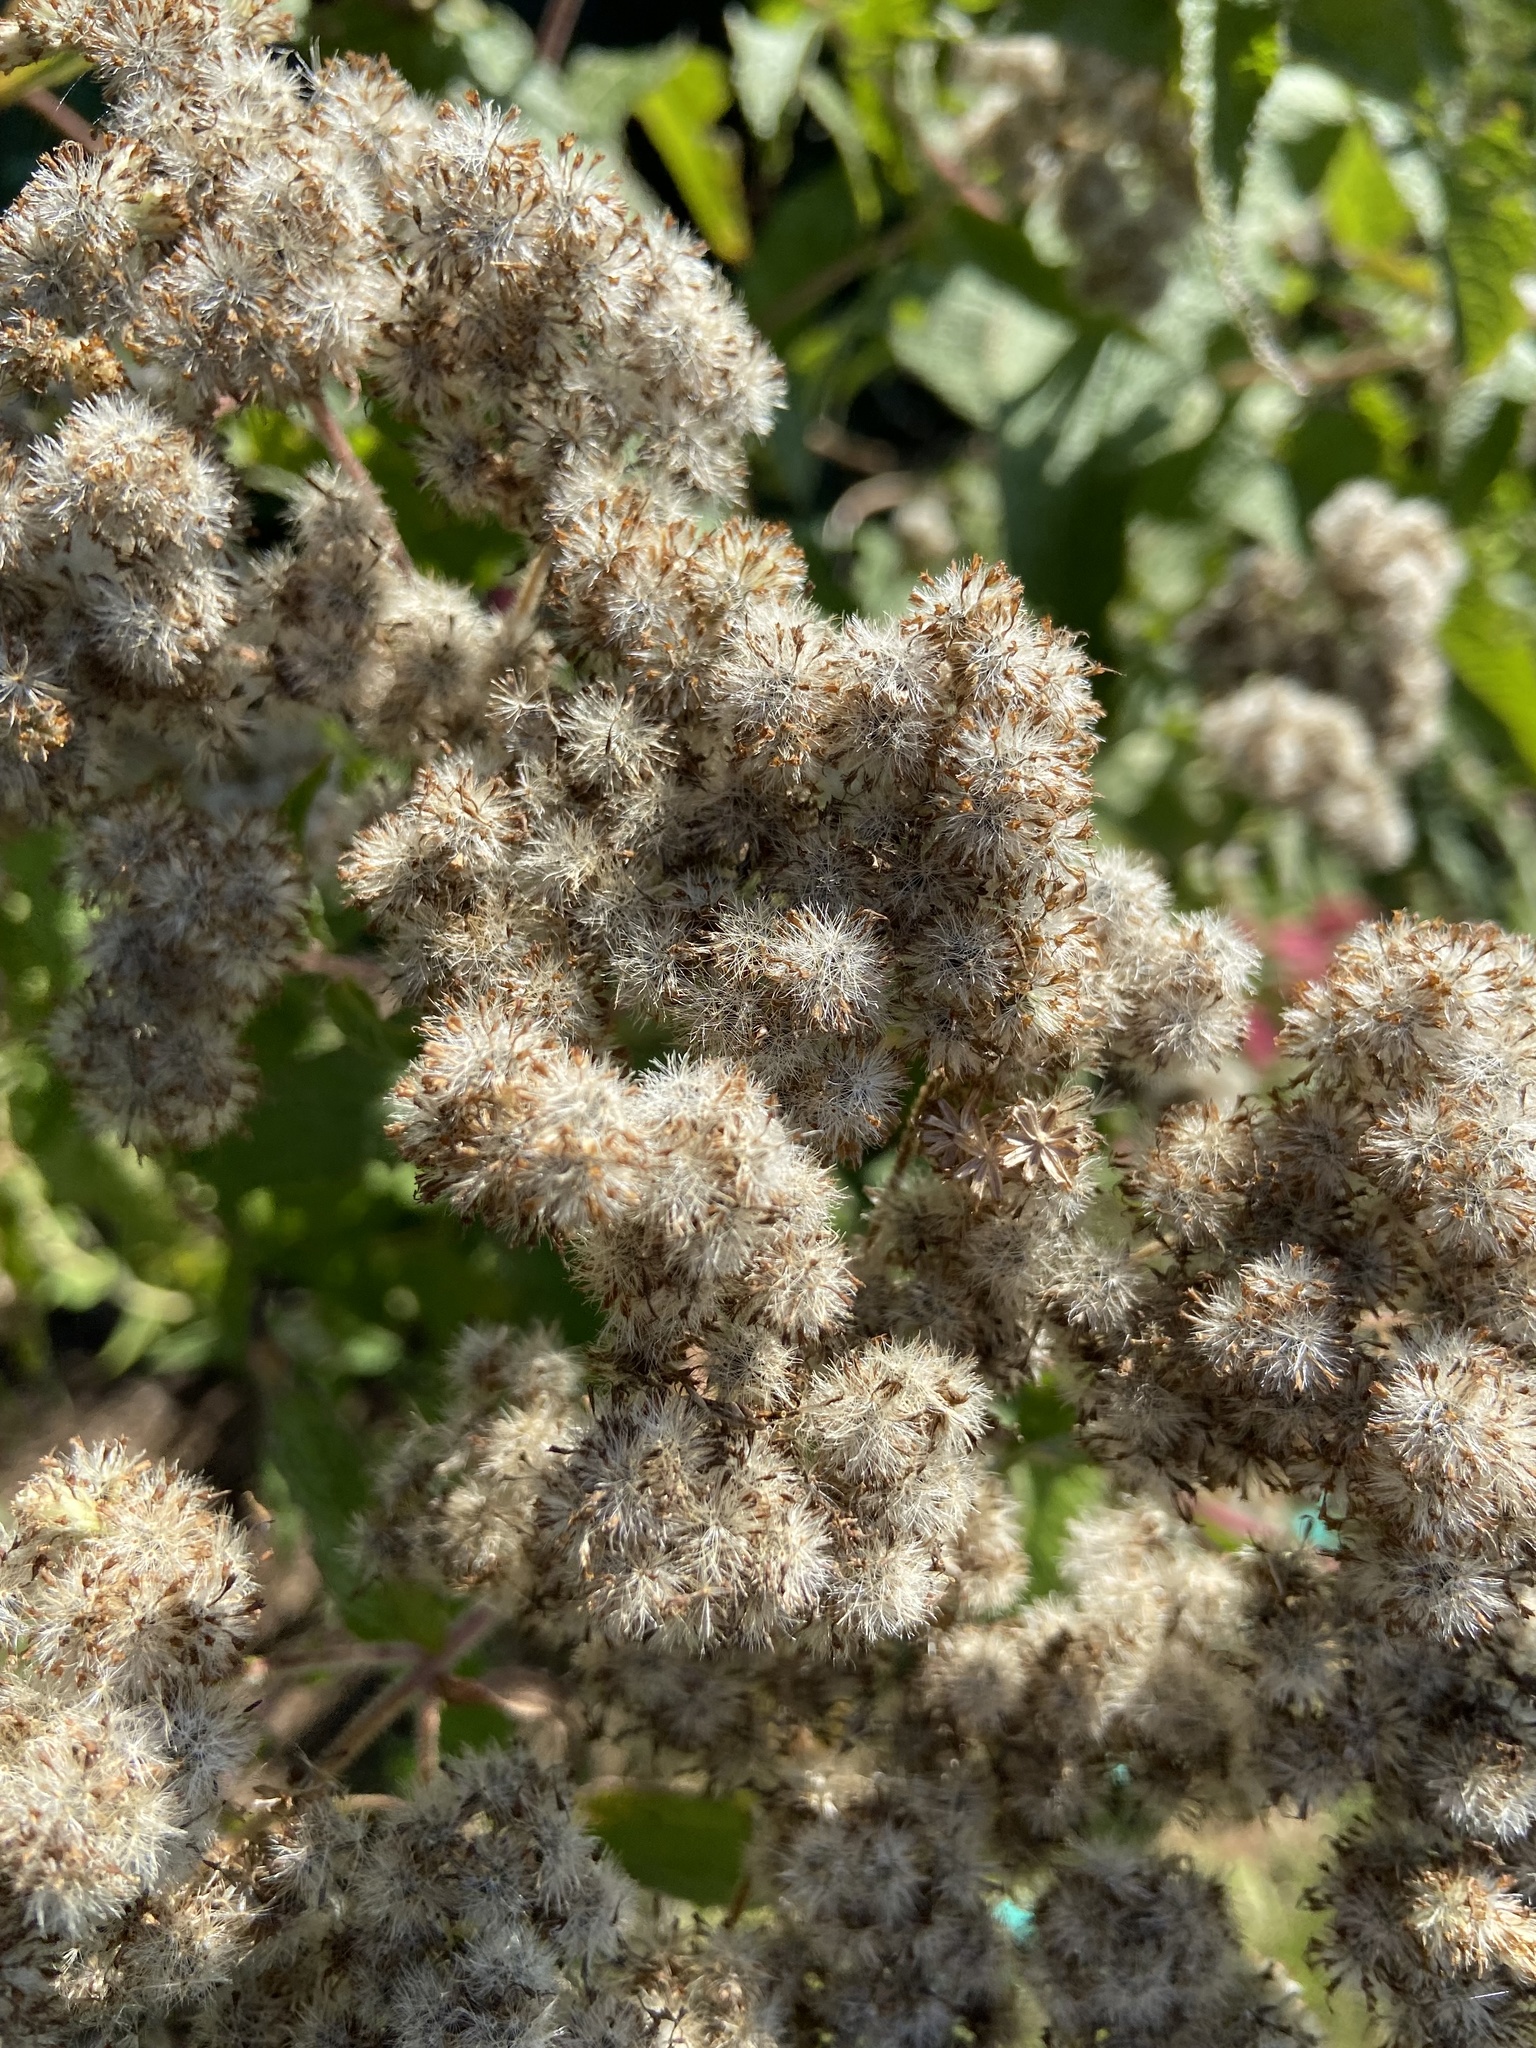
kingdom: Plantae
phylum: Tracheophyta
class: Magnoliopsida
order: Asterales
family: Asteraceae
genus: Eupatorium
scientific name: Eupatorium perfoliatum
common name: Boneset
